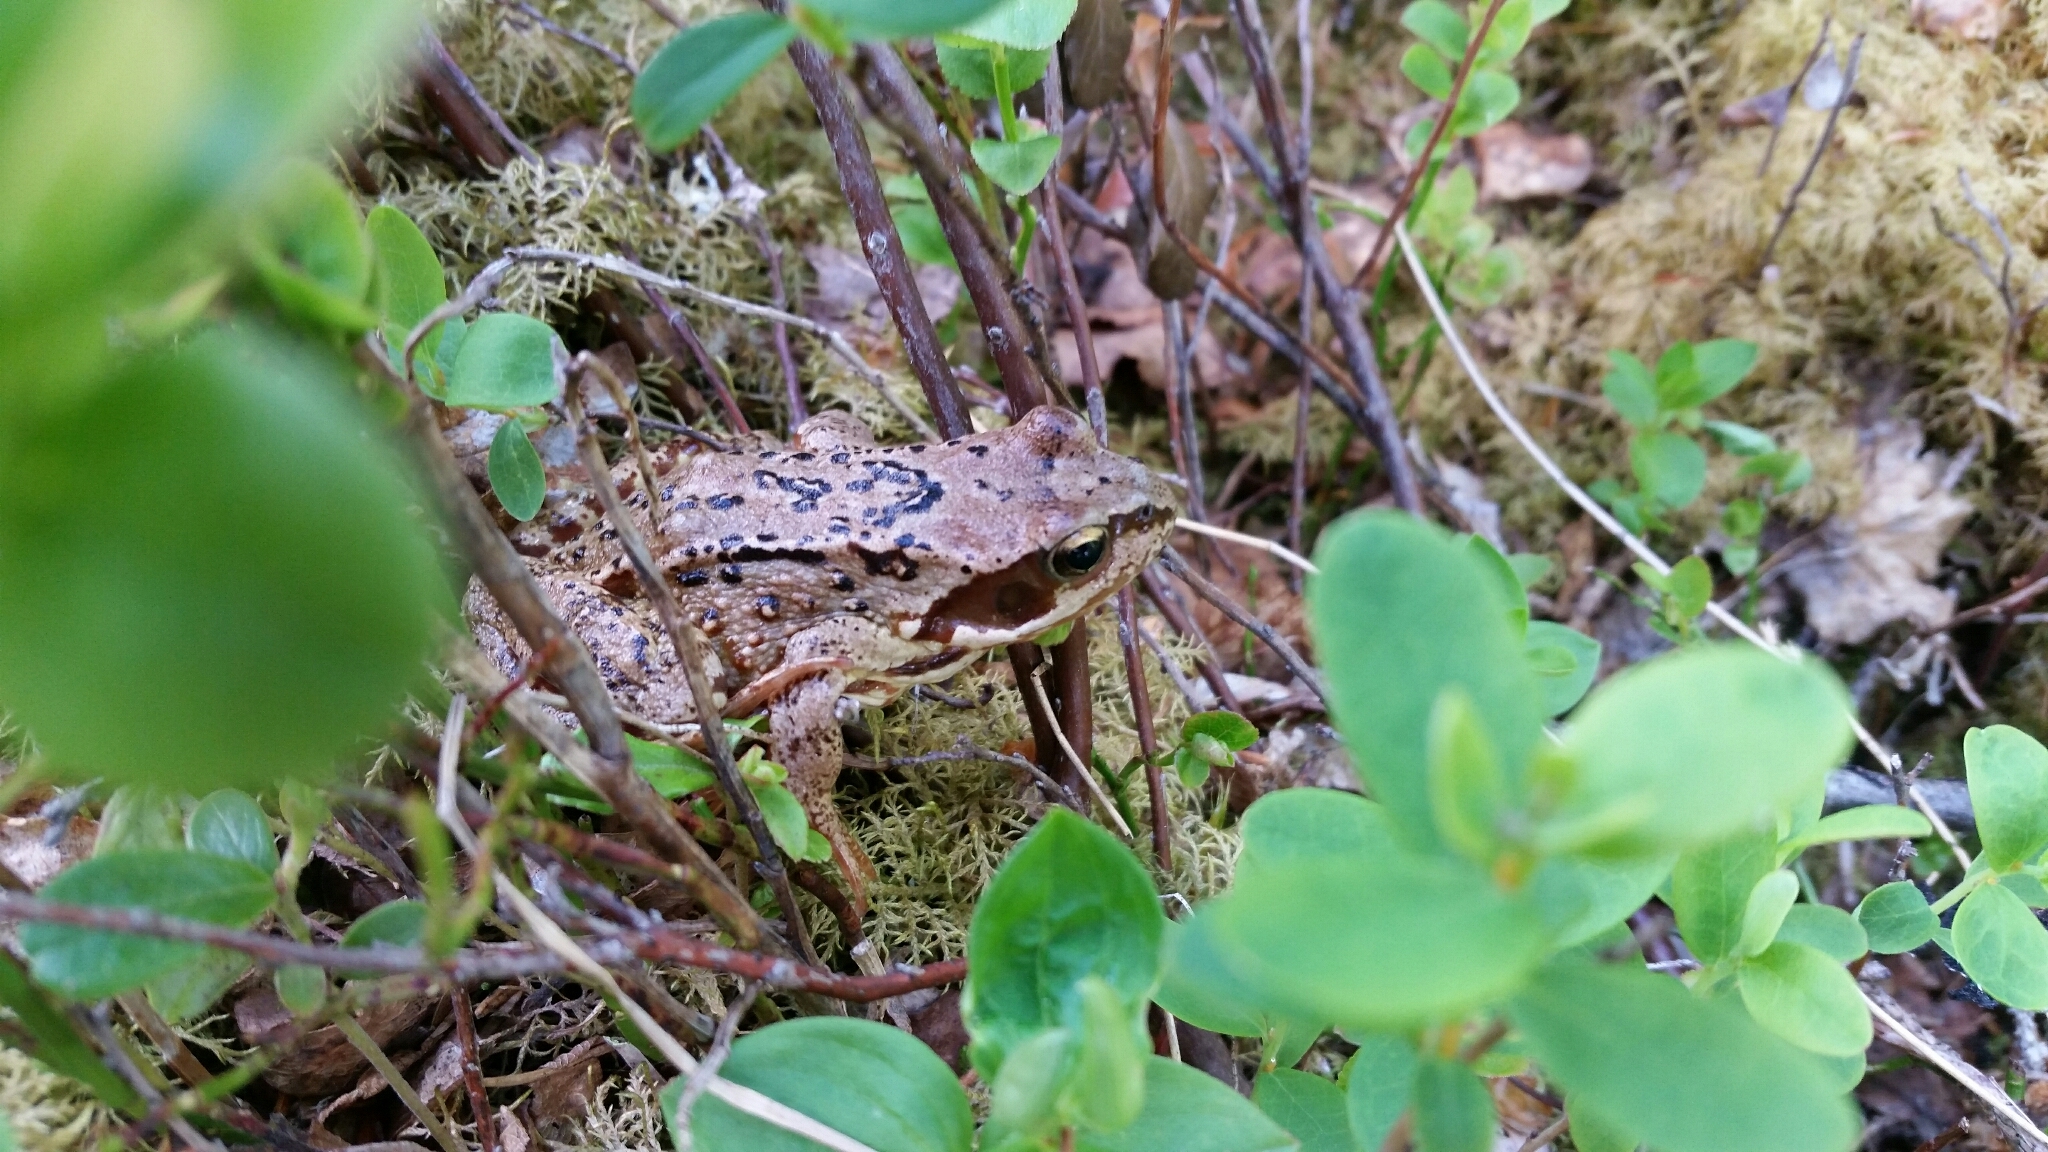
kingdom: Animalia
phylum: Chordata
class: Amphibia
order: Anura
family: Ranidae
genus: Rana
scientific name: Rana temporaria
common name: Common frog
